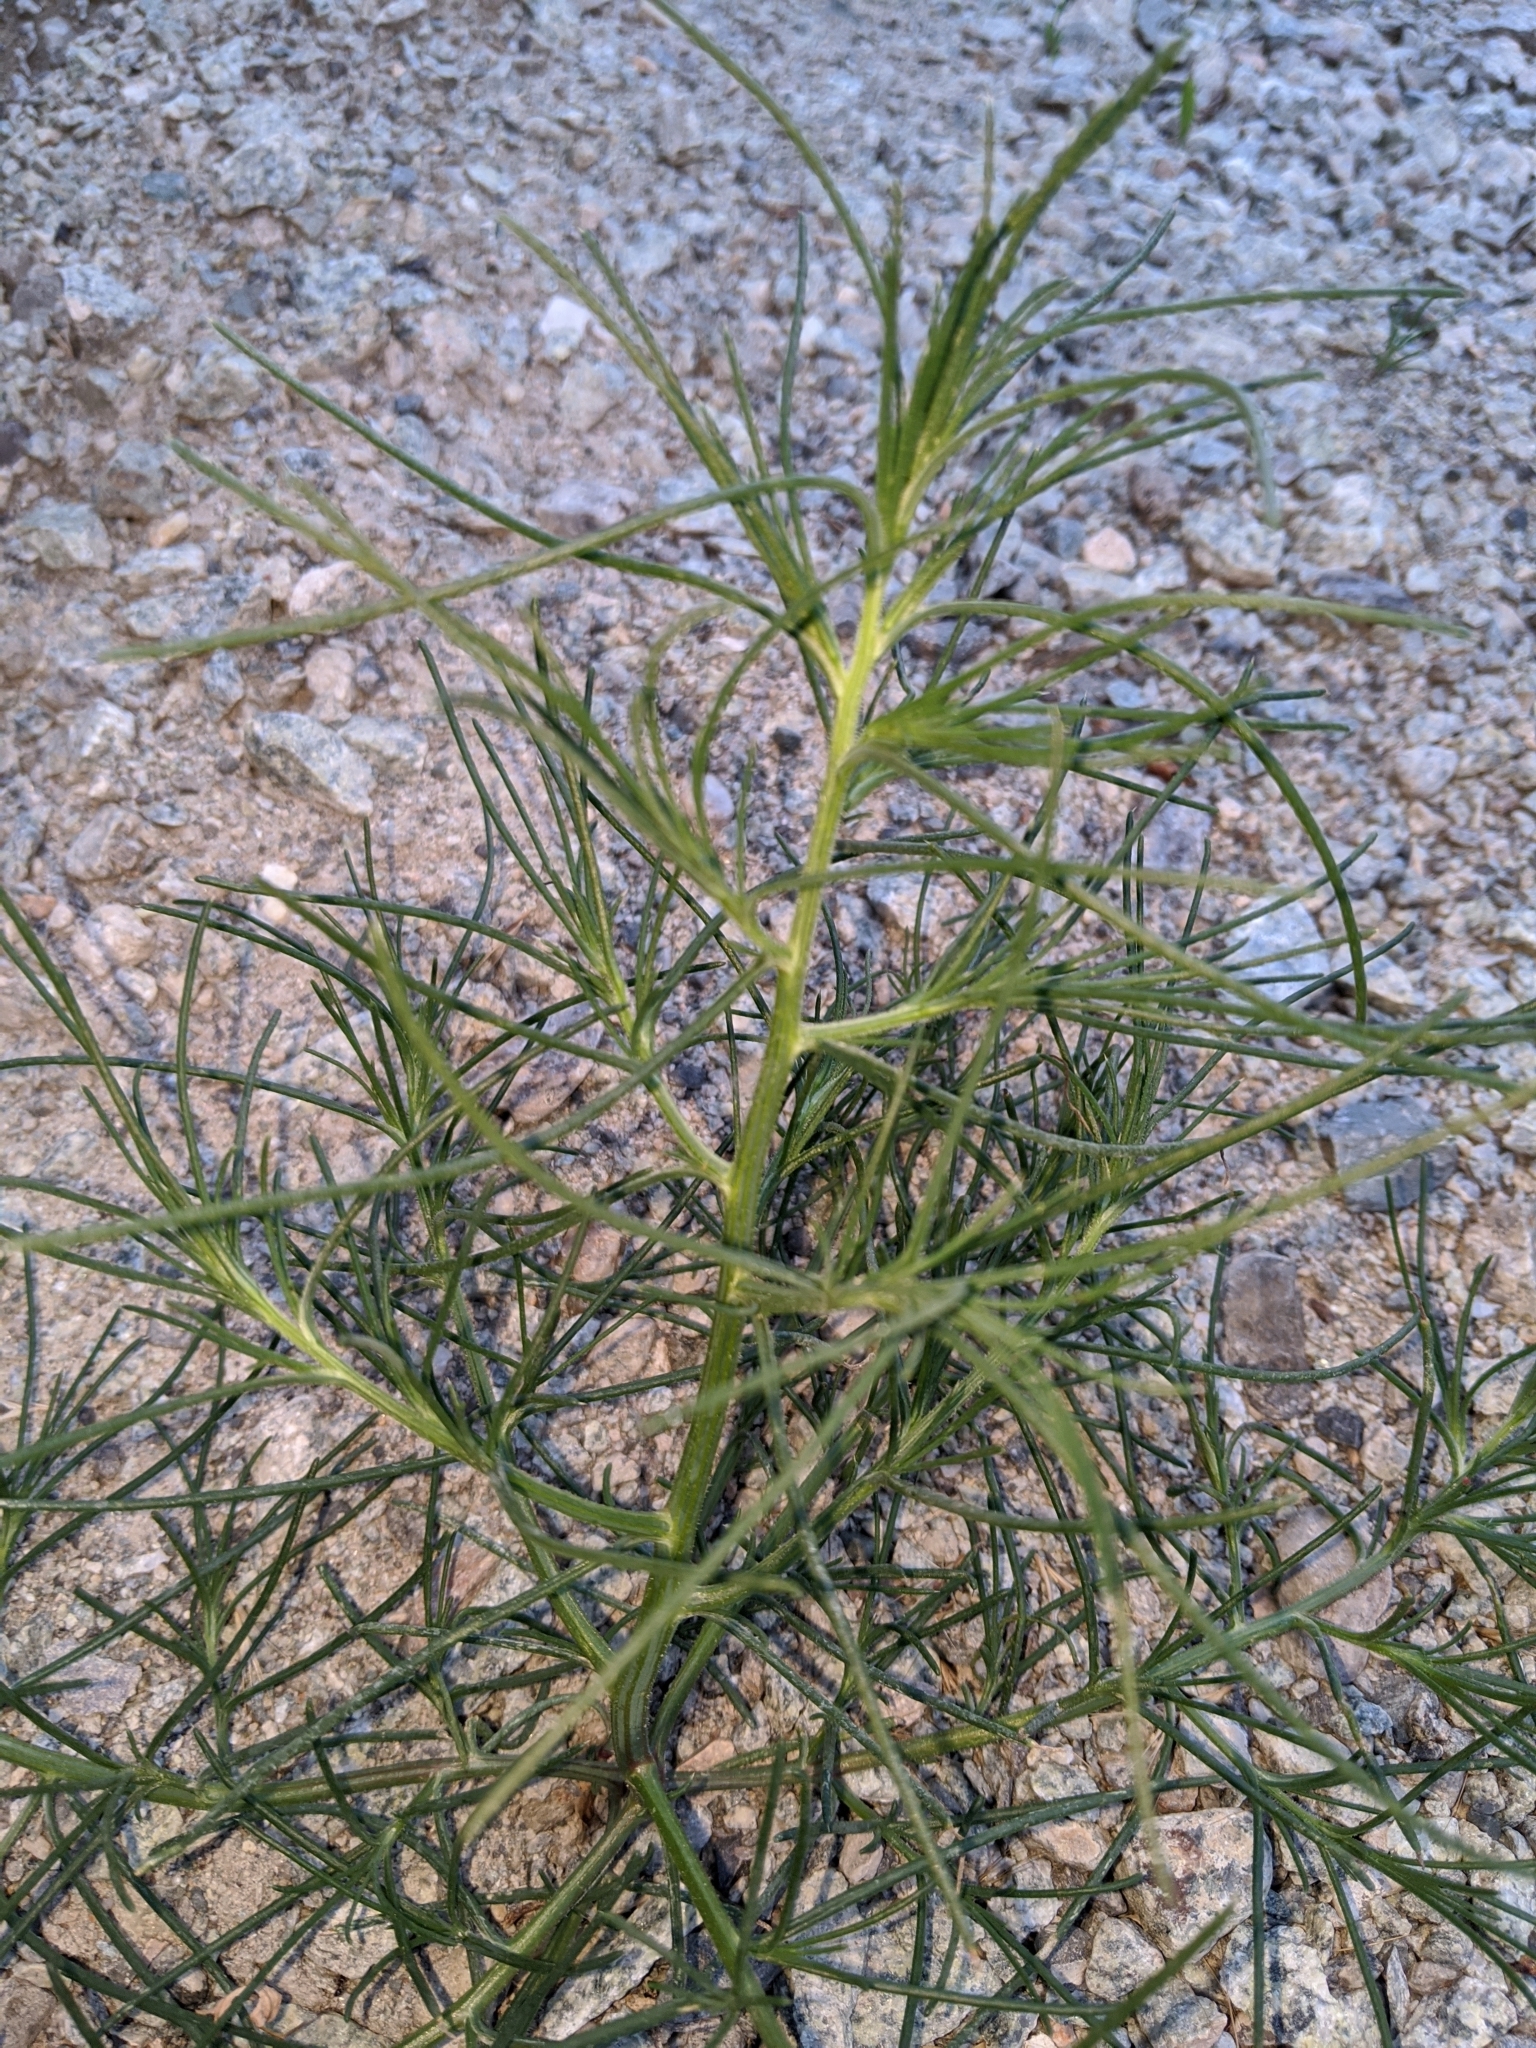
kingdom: Plantae
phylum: Tracheophyta
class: Magnoliopsida
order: Caryophyllales
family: Amaranthaceae
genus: Salsola
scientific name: Salsola tragus
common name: Prickly russian thistle
